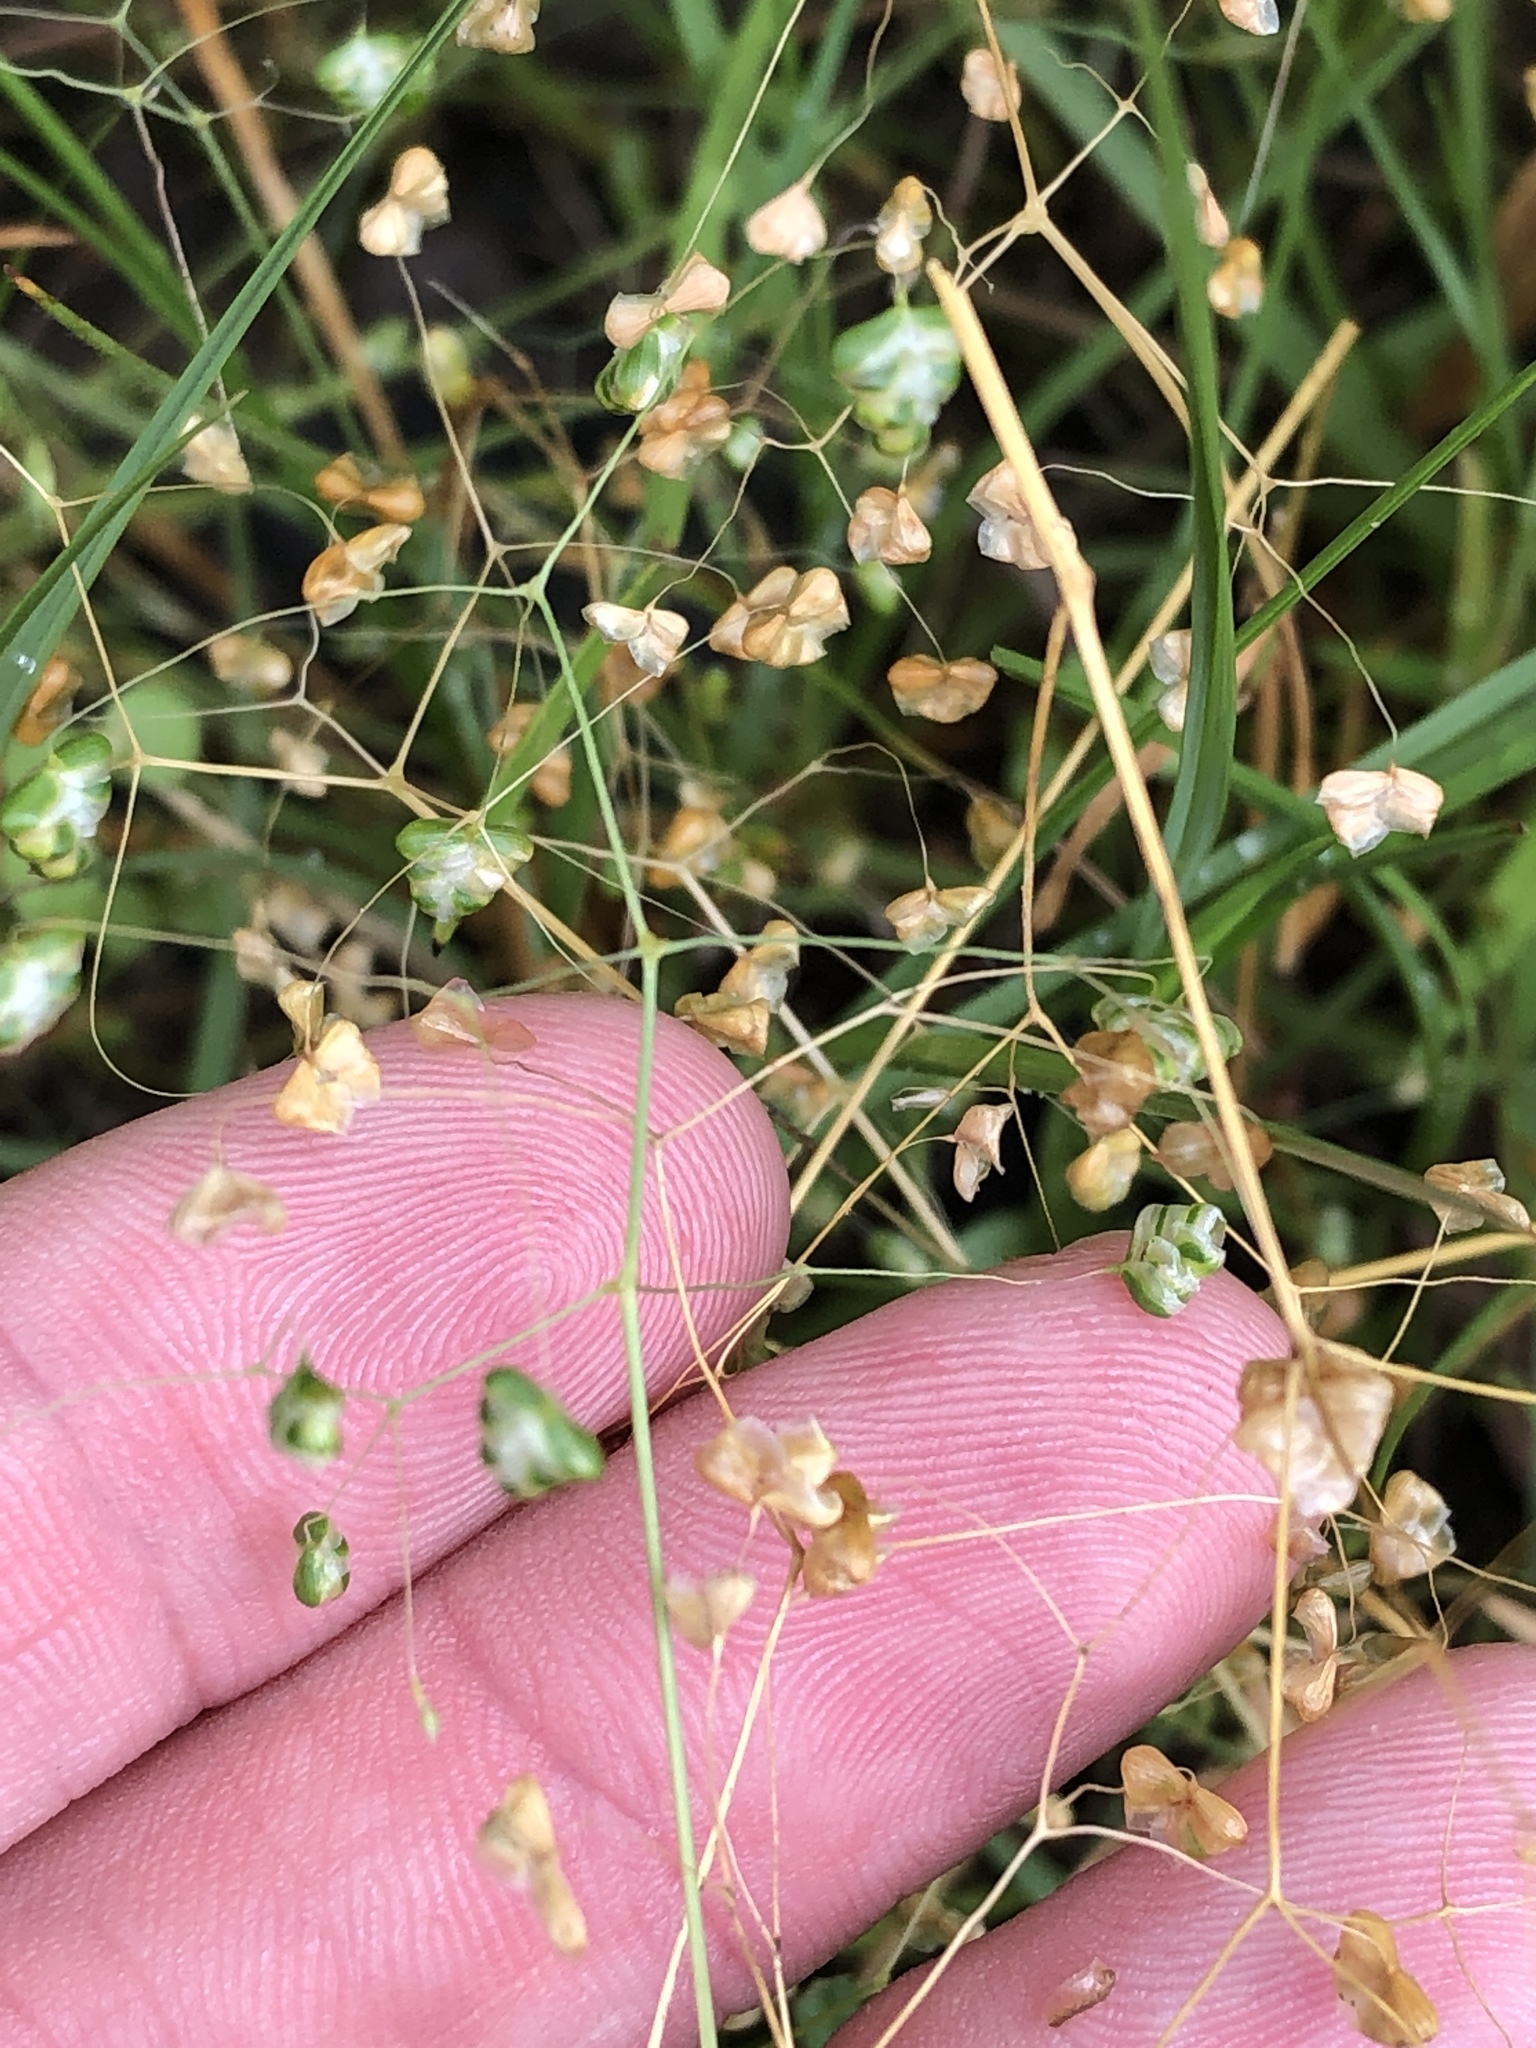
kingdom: Plantae
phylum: Tracheophyta
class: Liliopsida
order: Poales
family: Poaceae
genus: Briza
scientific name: Briza minor
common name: Lesser quaking-grass
